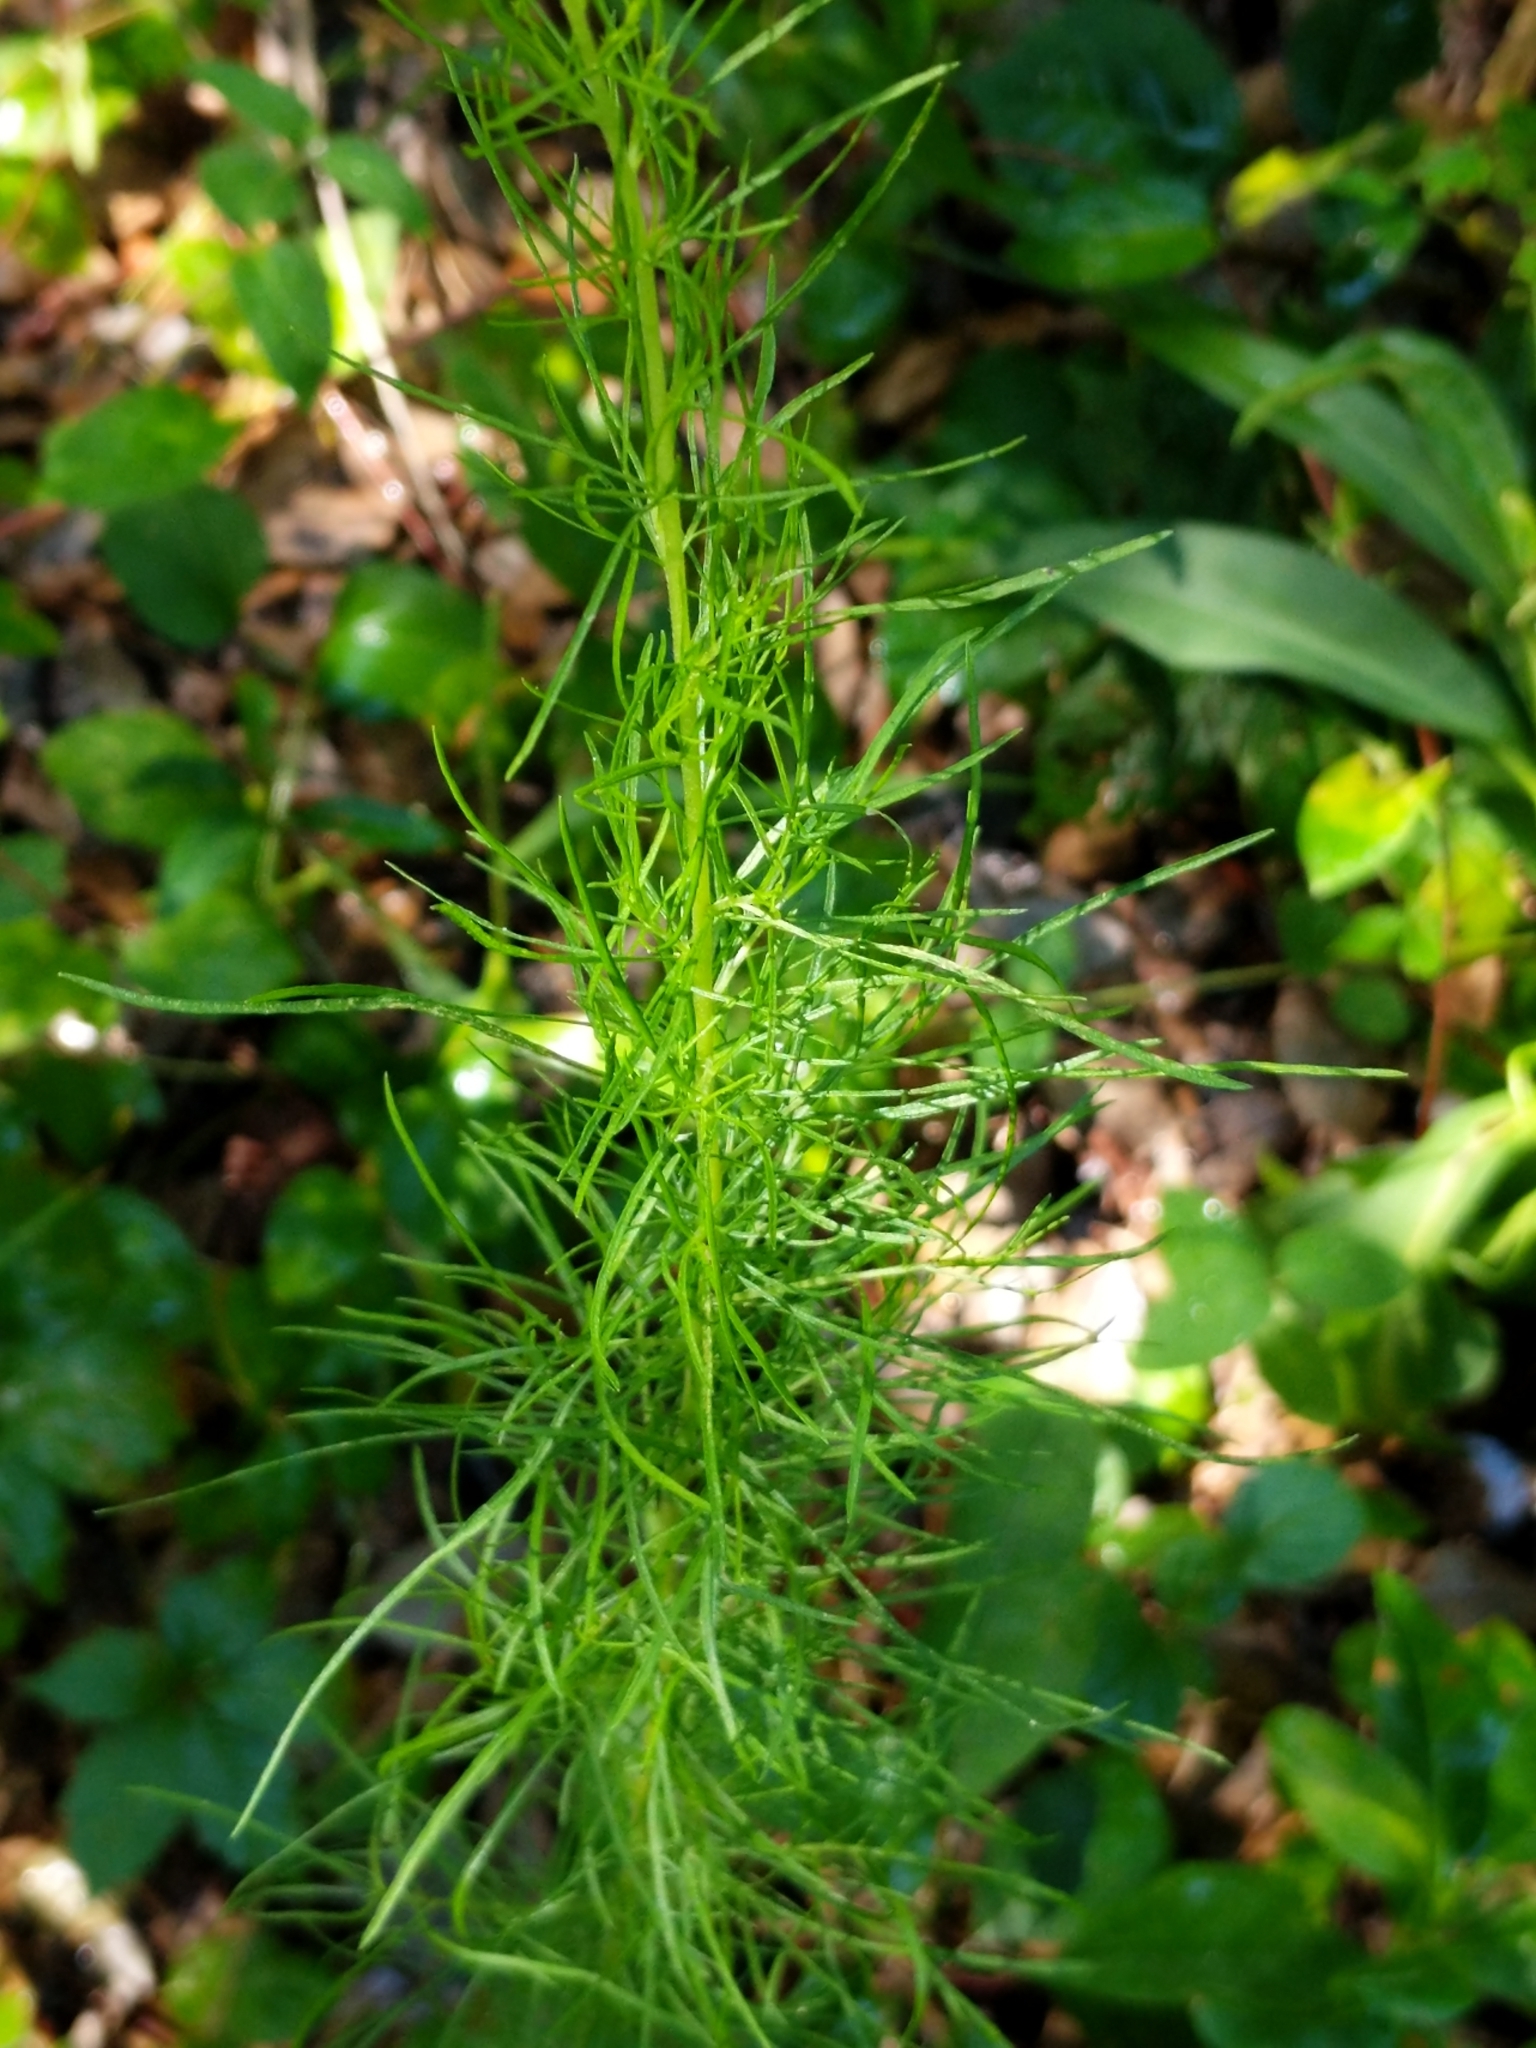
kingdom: Plantae
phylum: Tracheophyta
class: Magnoliopsida
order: Asterales
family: Asteraceae
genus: Eupatorium
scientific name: Eupatorium capillifolium
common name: Dog-fennel
